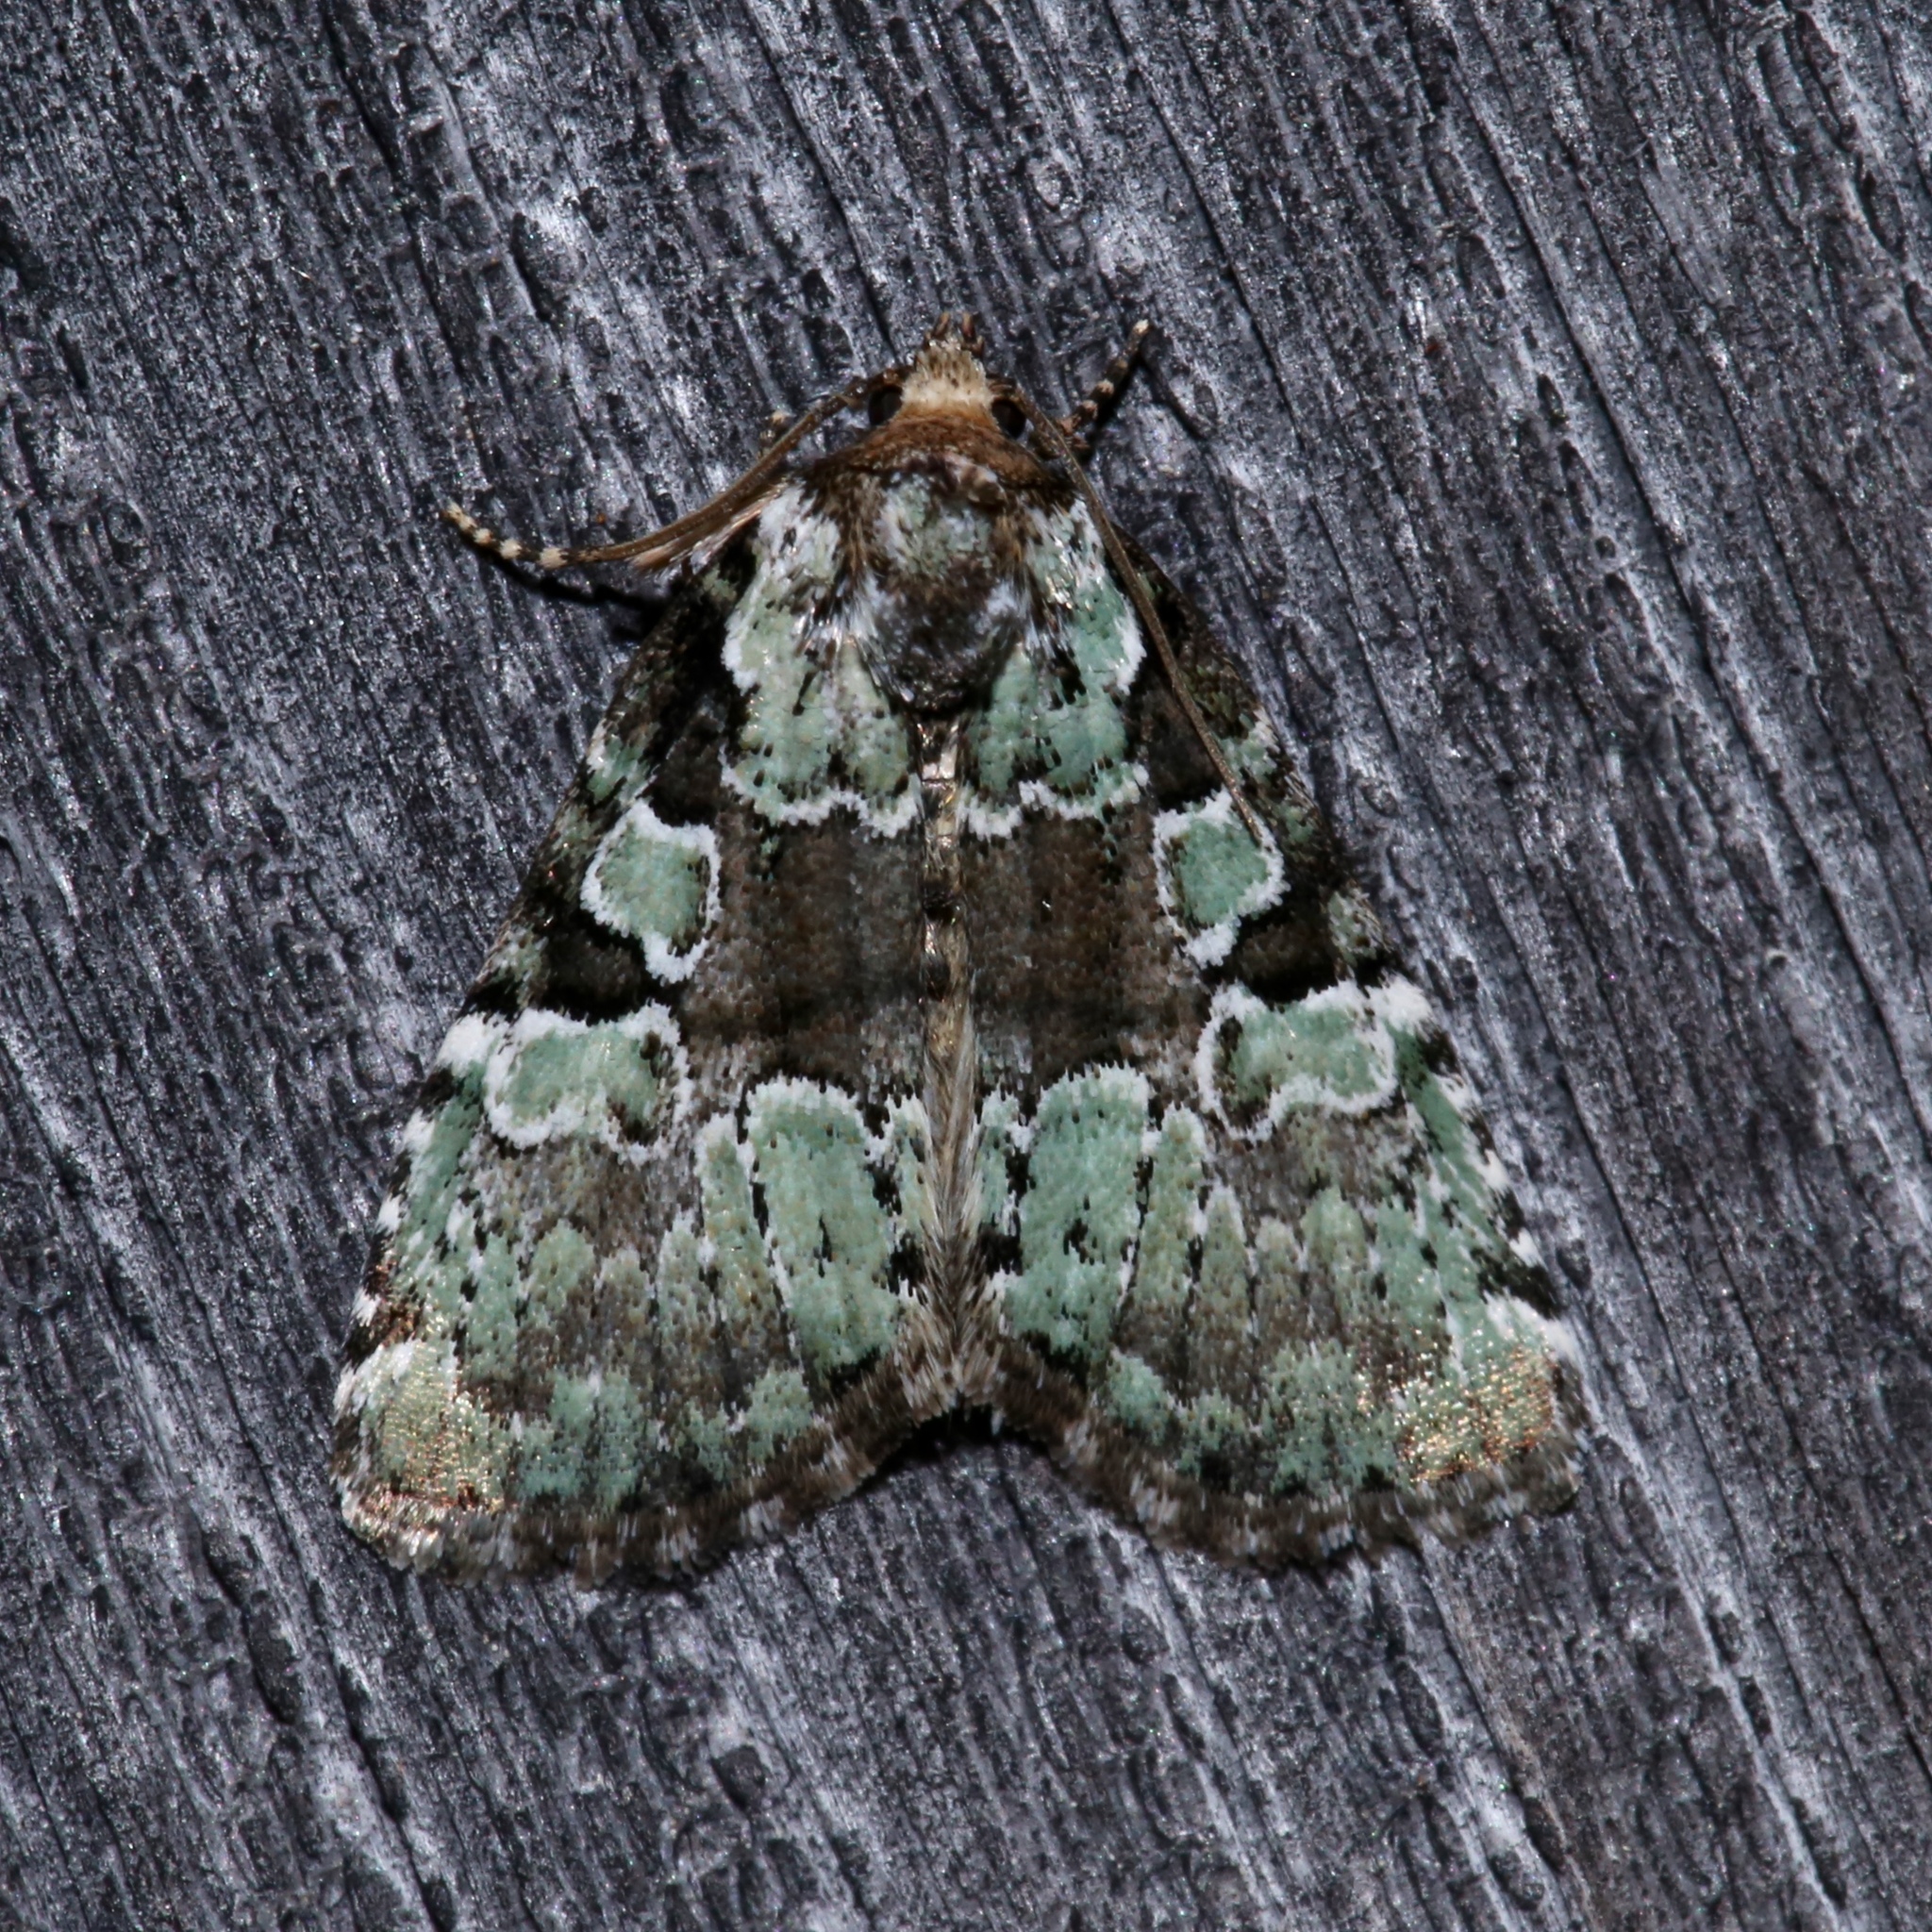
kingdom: Animalia
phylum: Arthropoda
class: Insecta
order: Lepidoptera
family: Noctuidae
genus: Leuconycta
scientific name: Leuconycta lepidula
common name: Marbled-green leuconycta moth
